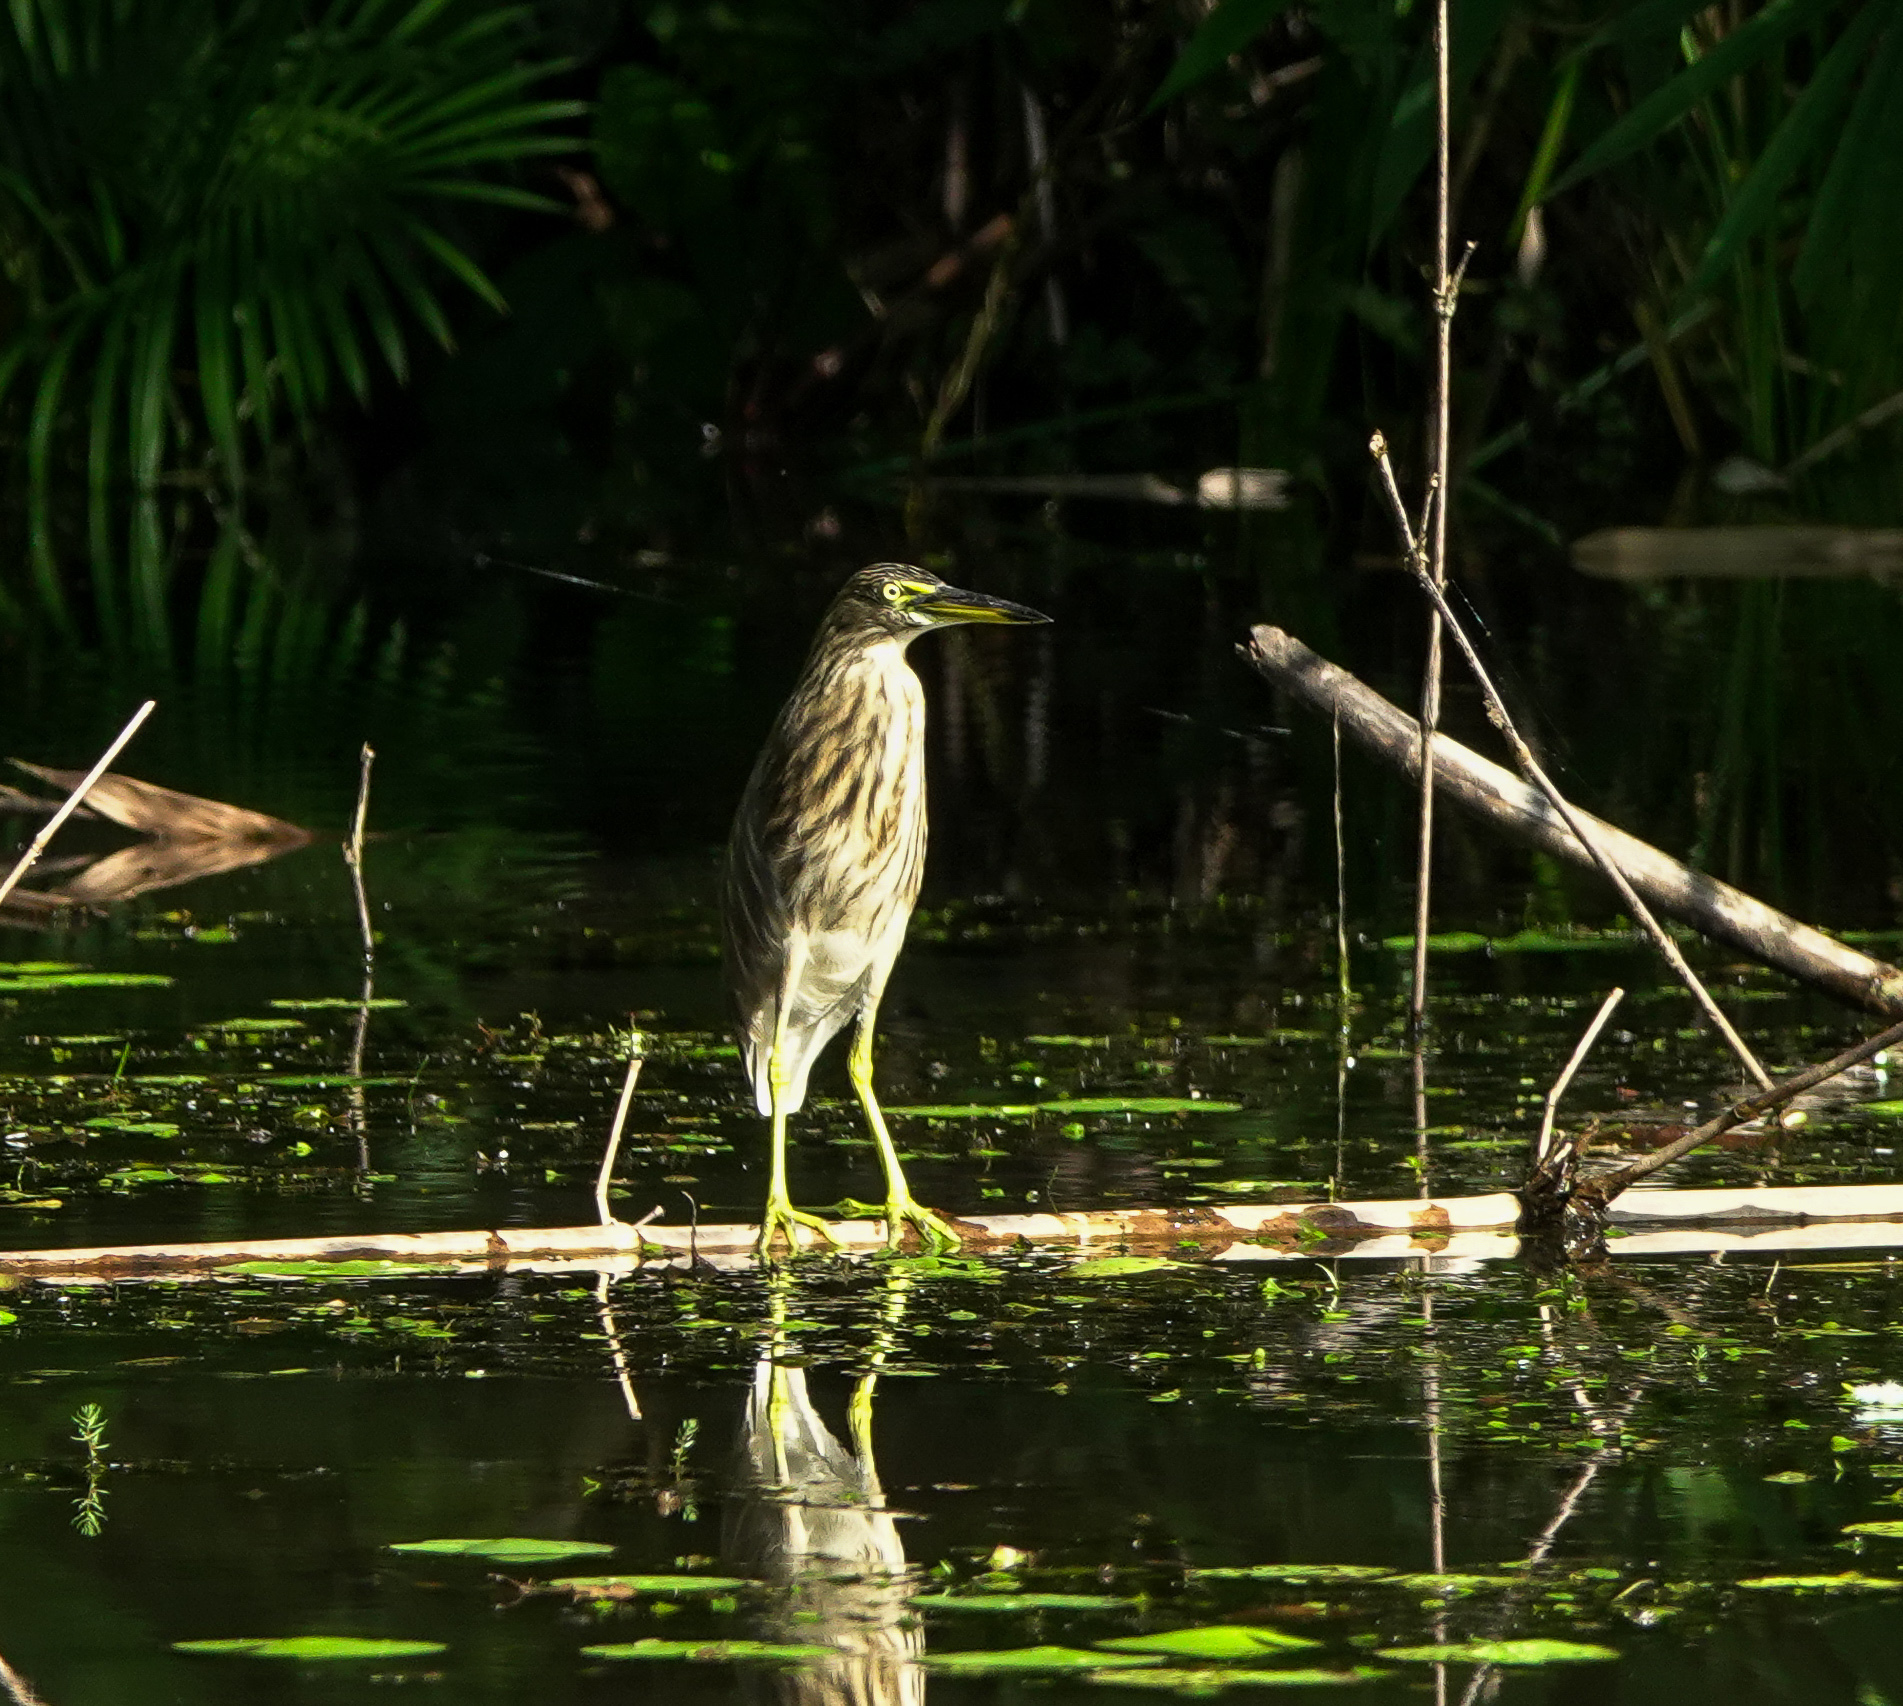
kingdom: Animalia
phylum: Chordata
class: Aves
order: Pelecaniformes
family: Ardeidae
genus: Ardeola
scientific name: Ardeola grayii
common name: Indian pond heron
